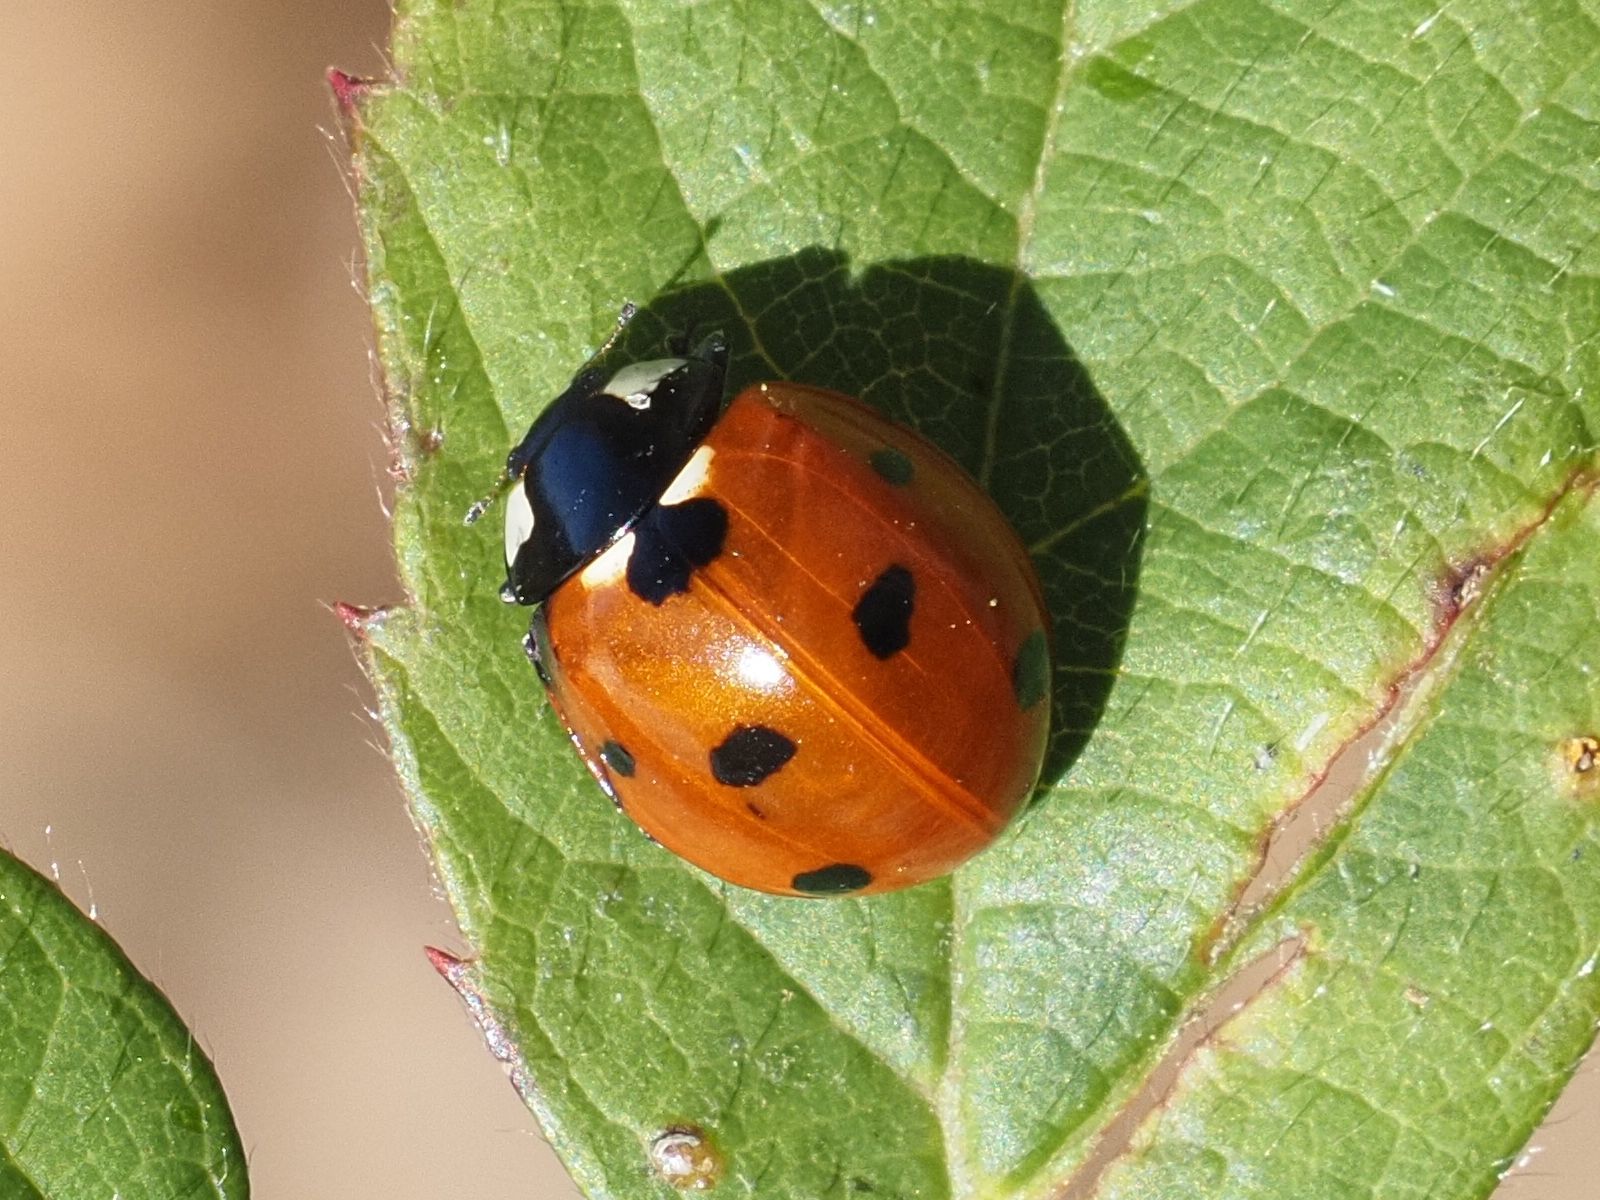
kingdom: Animalia
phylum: Arthropoda
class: Insecta
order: Coleoptera
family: Coccinellidae
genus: Coccinella
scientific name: Coccinella septempunctata
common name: Sevenspotted lady beetle
